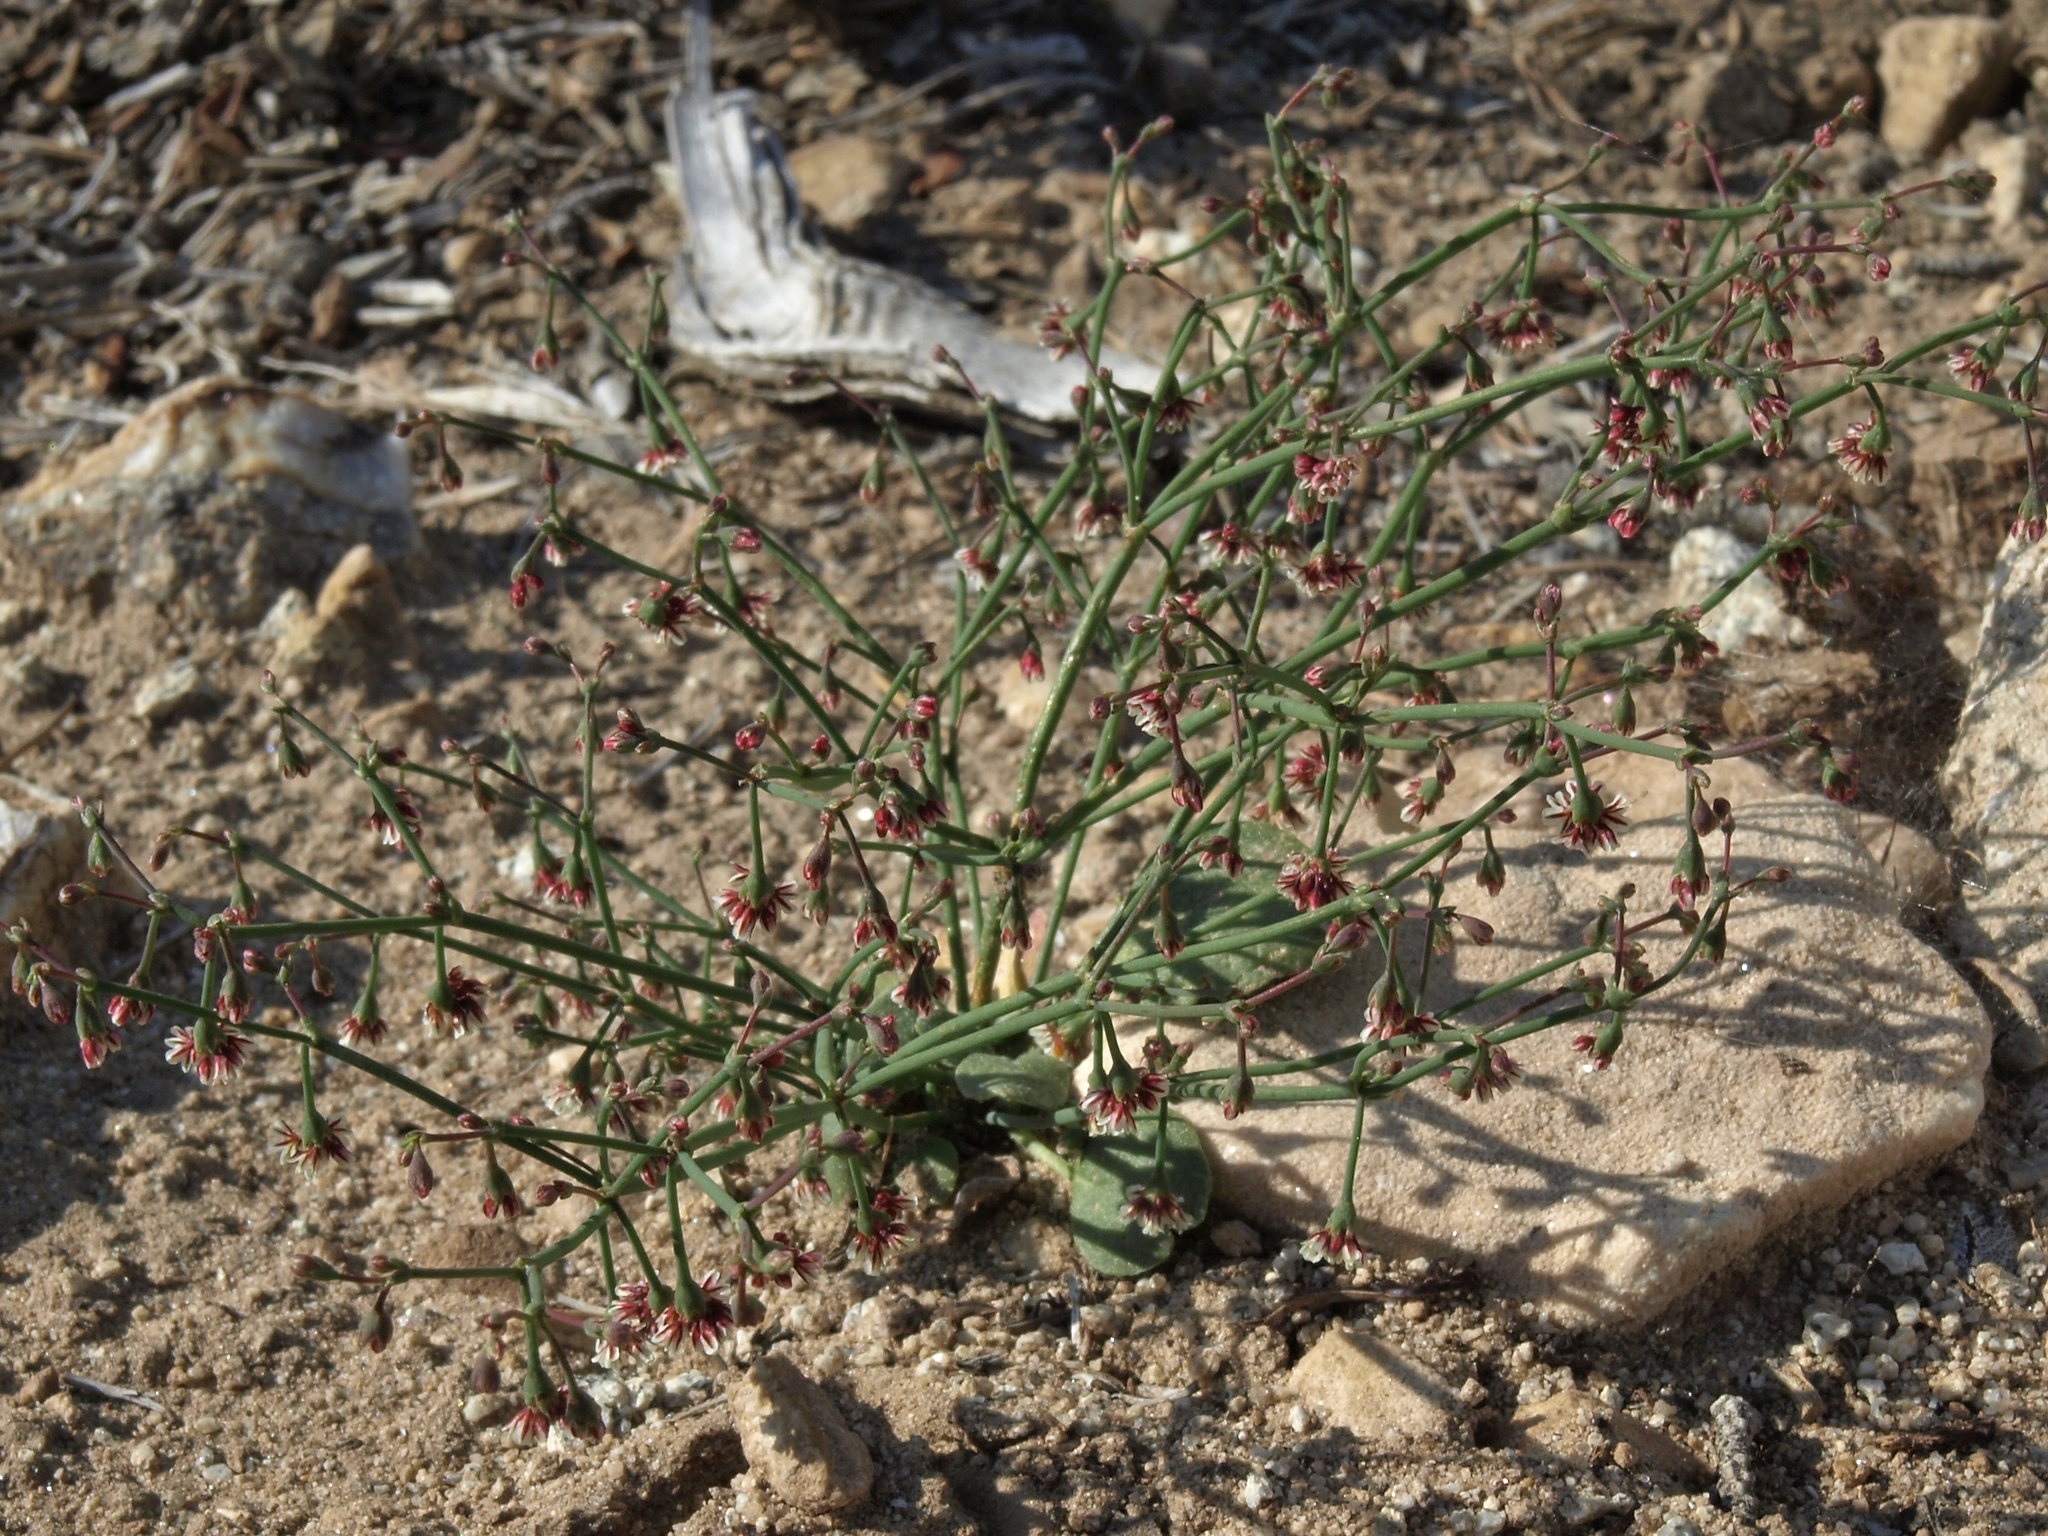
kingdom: Plantae
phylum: Tracheophyta
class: Magnoliopsida
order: Caryophyllales
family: Polygonaceae
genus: Eriogonum
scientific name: Eriogonum cernuum
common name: Nodding wild buckwheat
